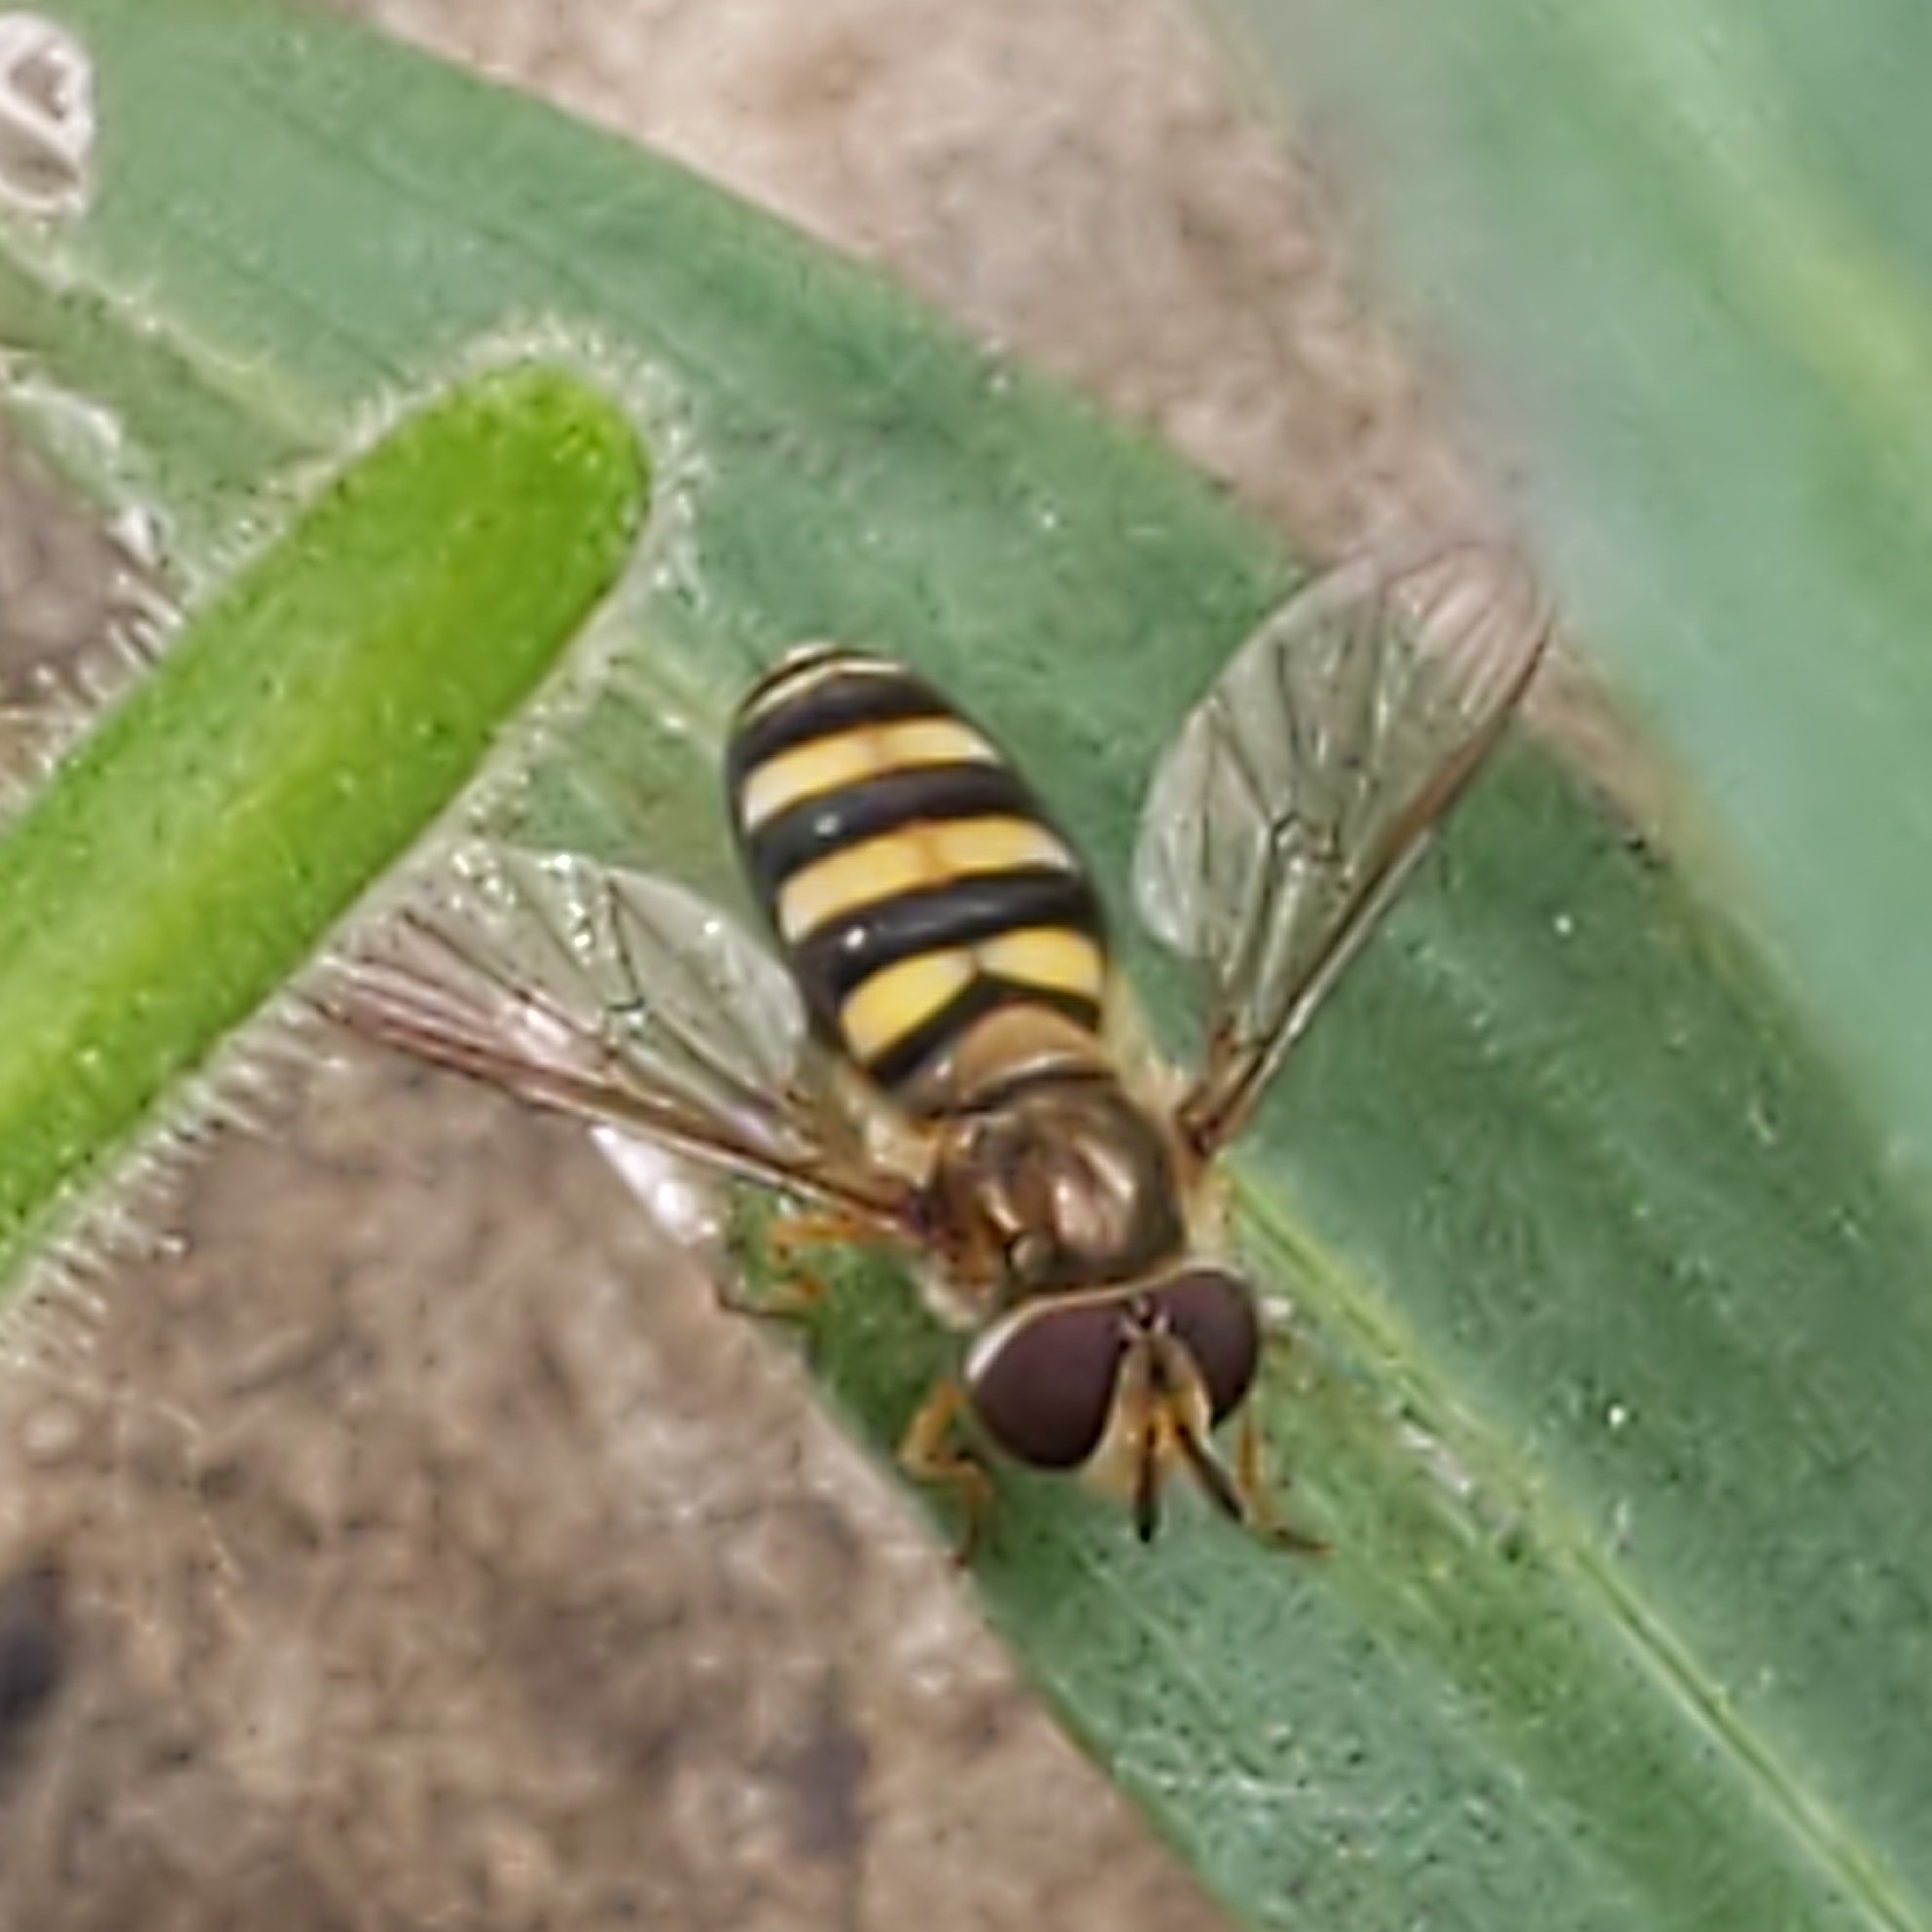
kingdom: Animalia
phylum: Arthropoda
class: Insecta
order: Diptera
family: Syrphidae
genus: Eupeodes
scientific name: Eupeodes
